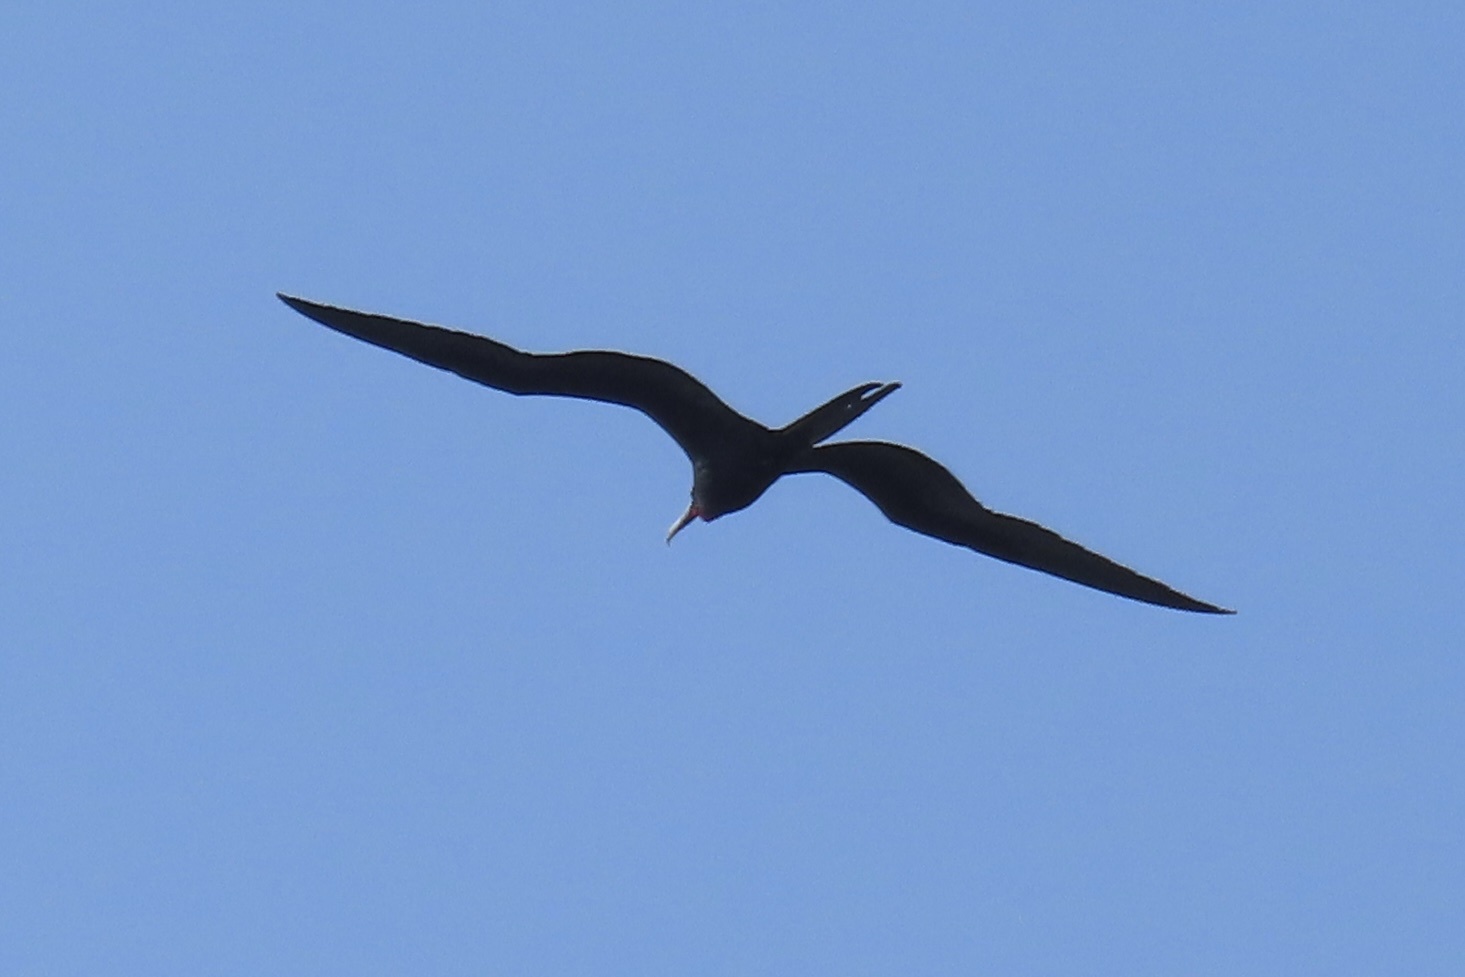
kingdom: Animalia
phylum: Chordata
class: Aves
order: Suliformes
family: Fregatidae
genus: Fregata
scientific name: Fregata magnificens
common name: Magnificent frigatebird
